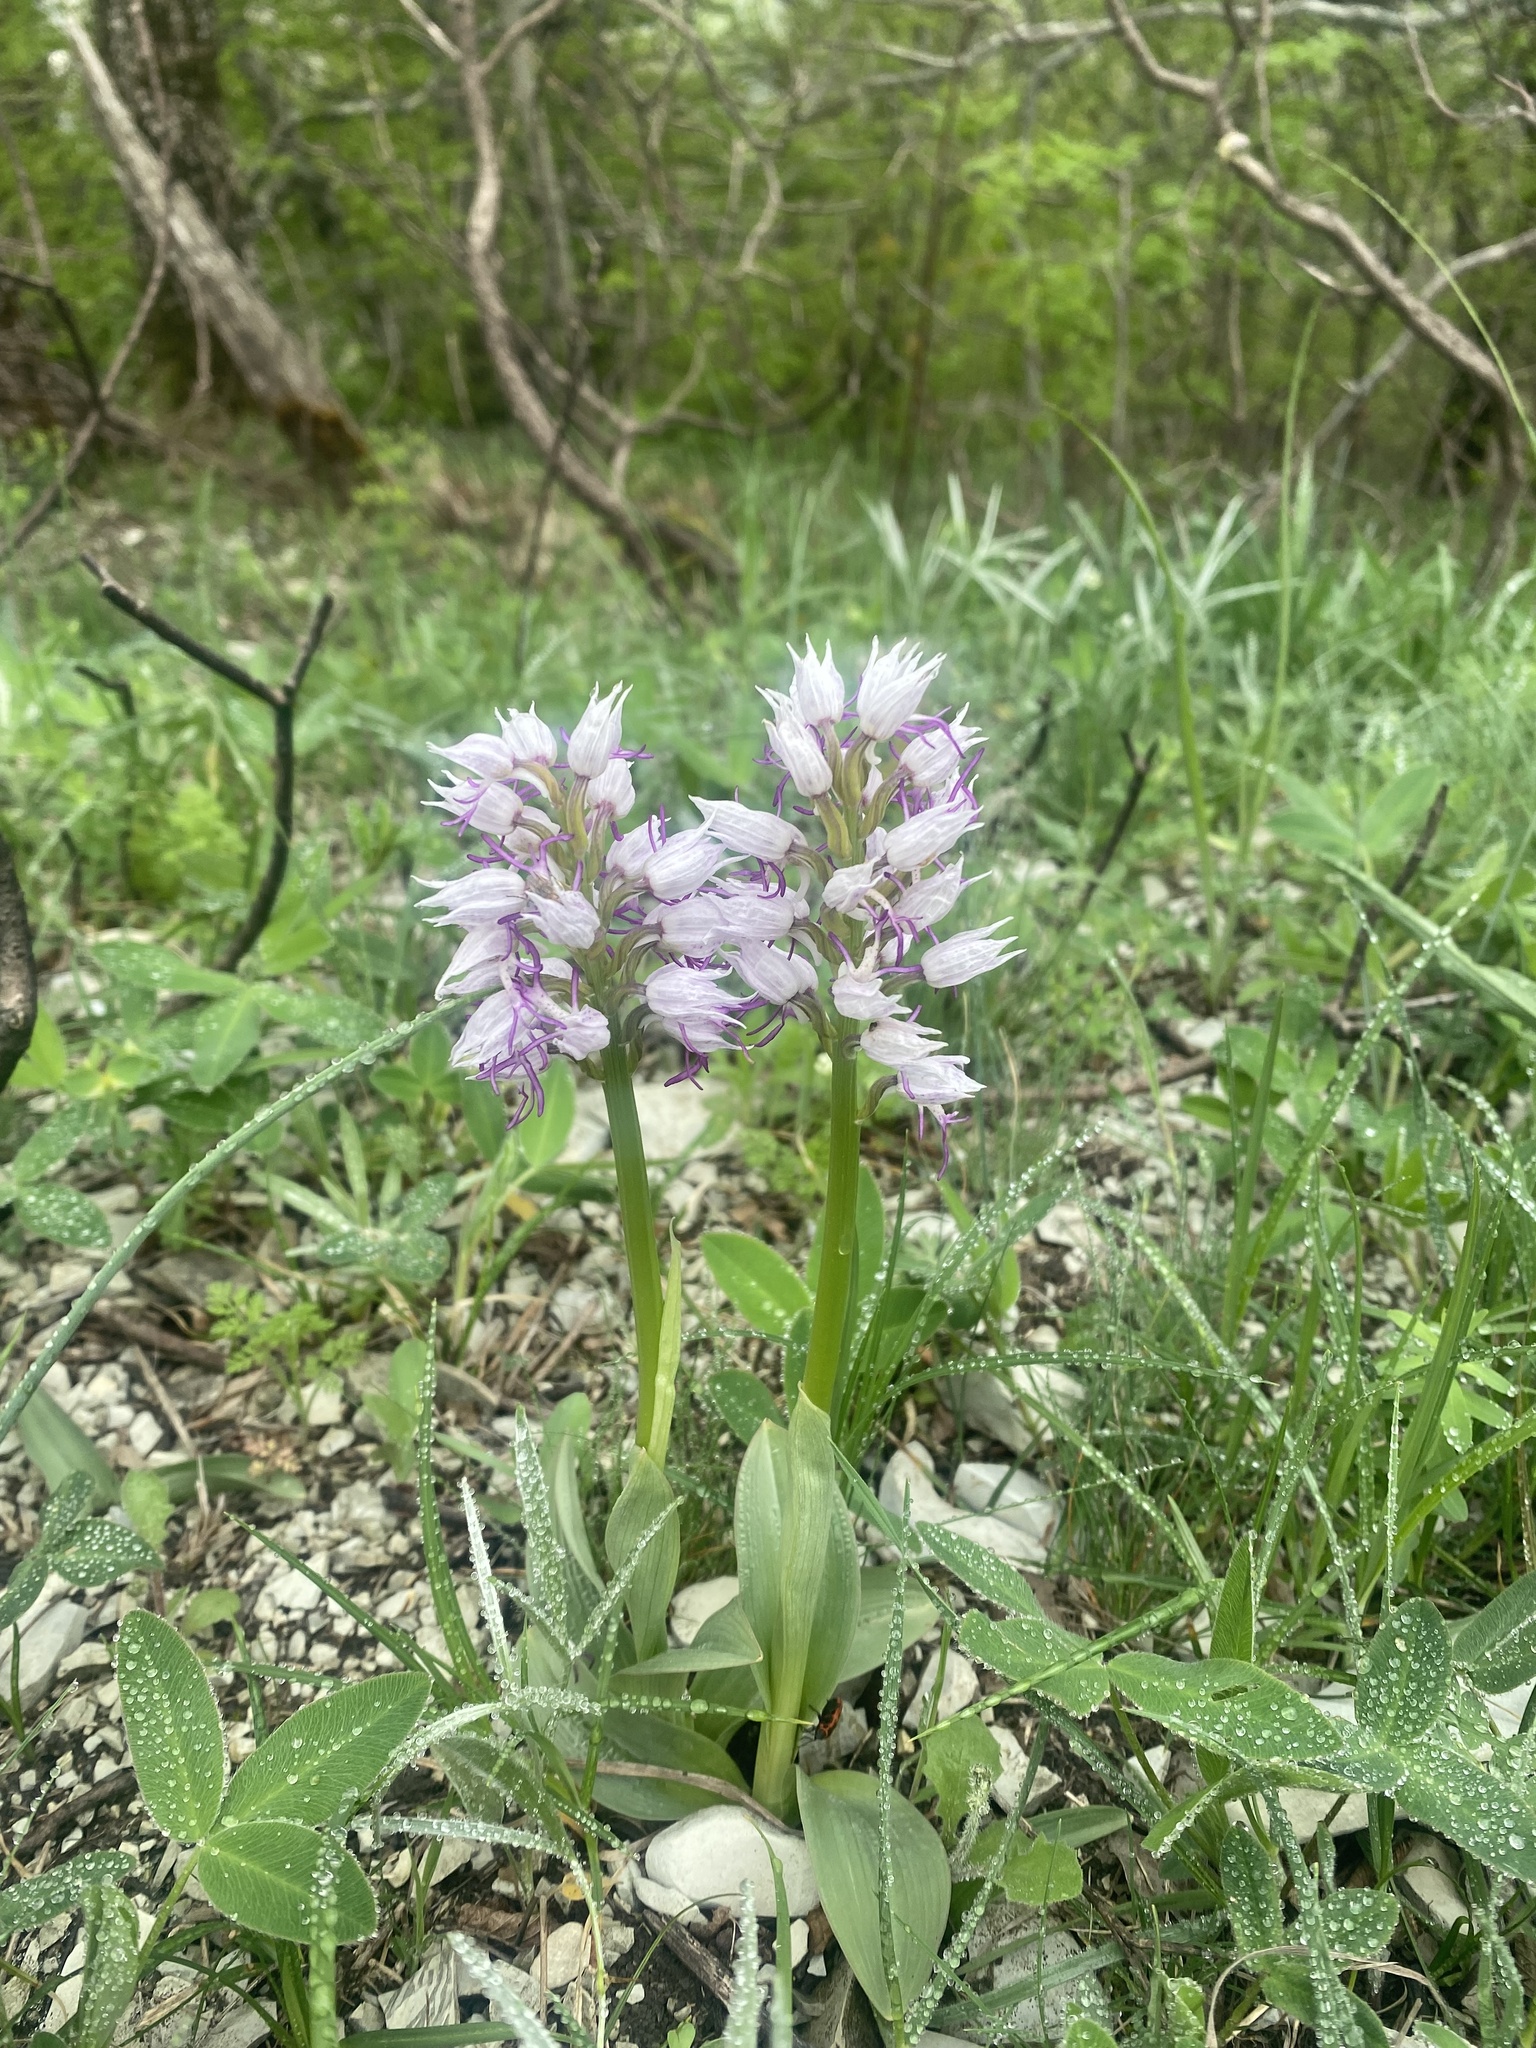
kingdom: Plantae
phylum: Tracheophyta
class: Liliopsida
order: Asparagales
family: Orchidaceae
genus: Orchis
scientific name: Orchis simia
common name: Monkey orchid
